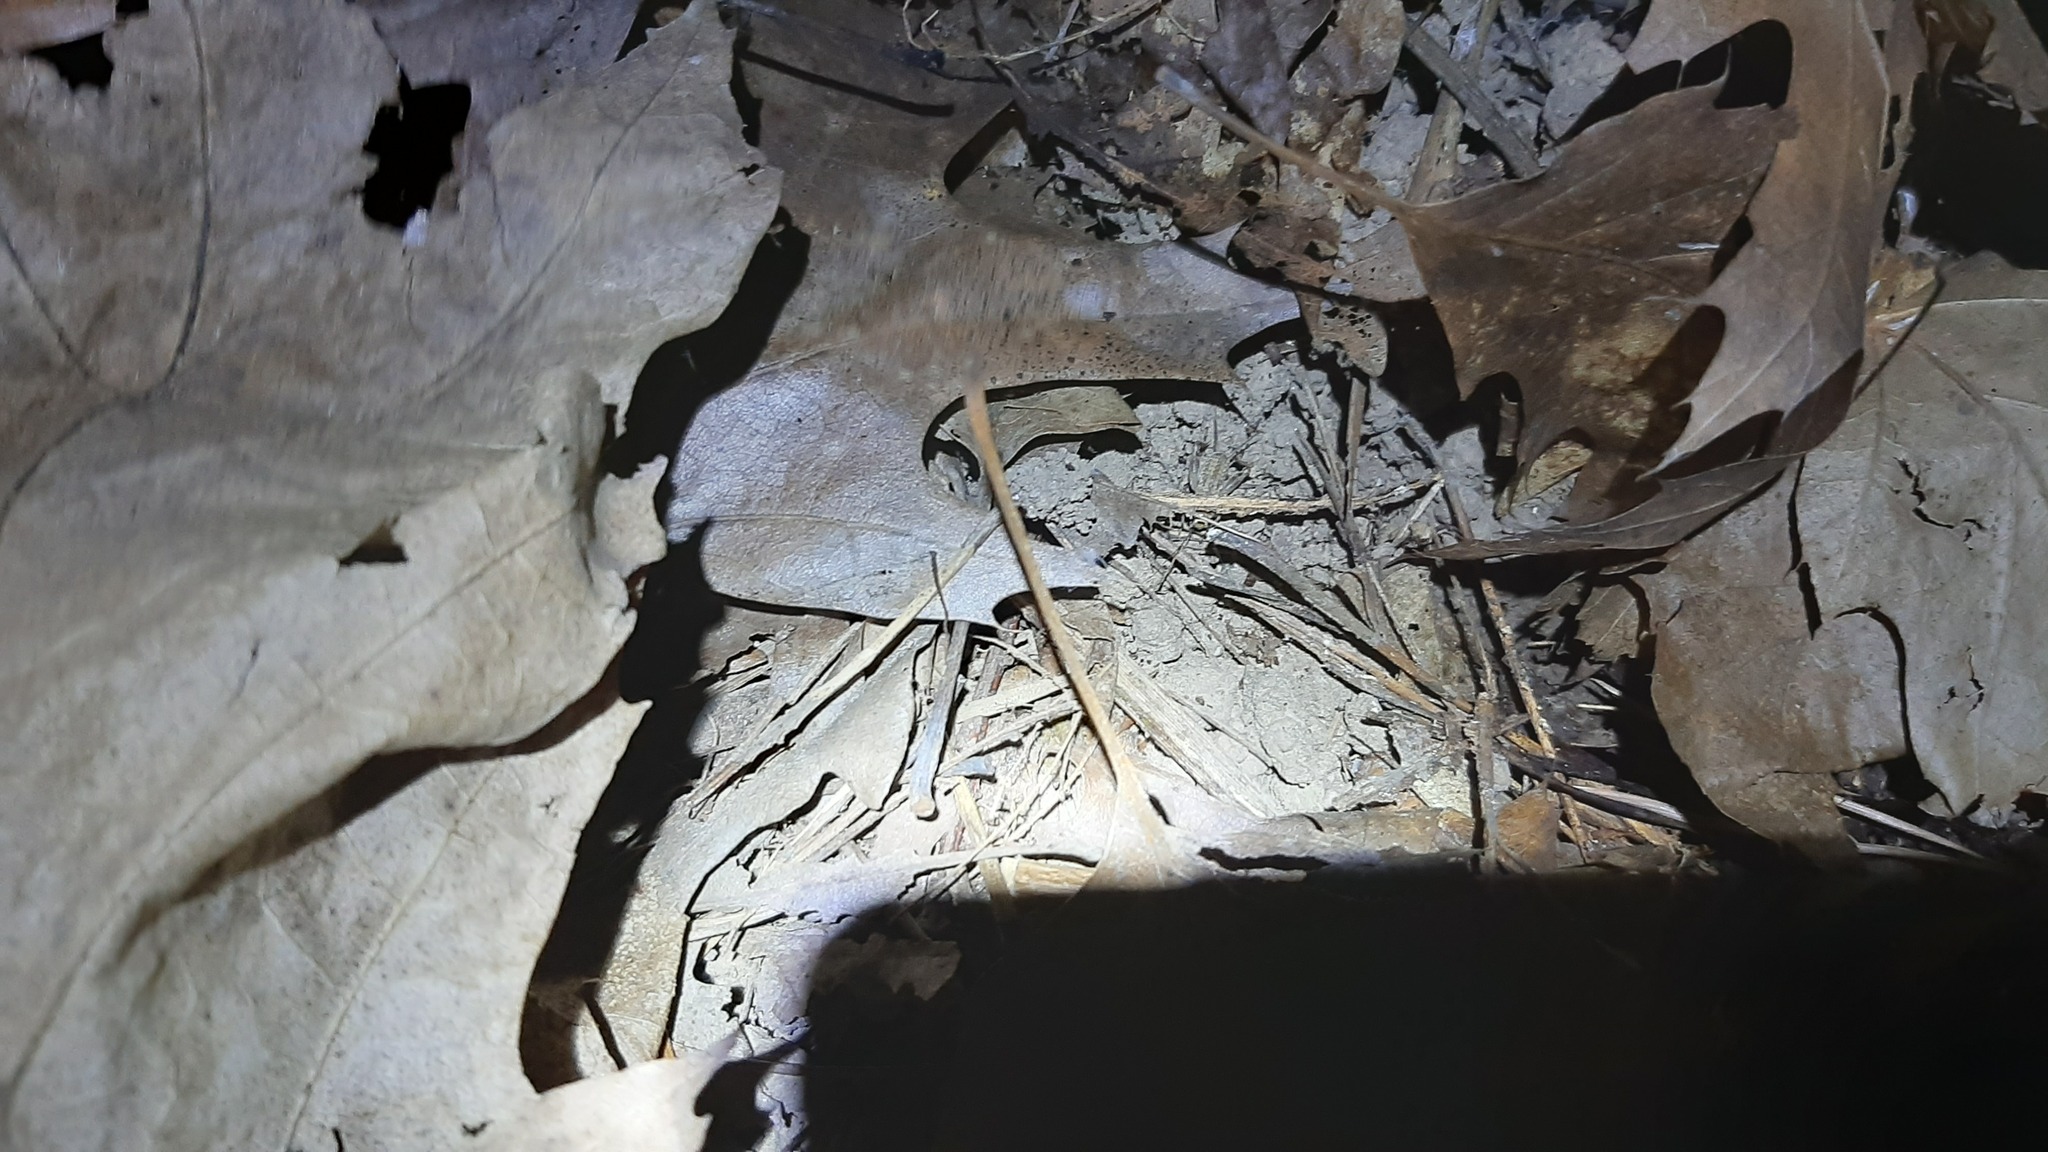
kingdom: Animalia
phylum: Arthropoda
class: Insecta
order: Orthoptera
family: Gryllidae
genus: Eumodicogryllus
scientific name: Eumodicogryllus bordigalensis
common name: Bordeaux cricket
